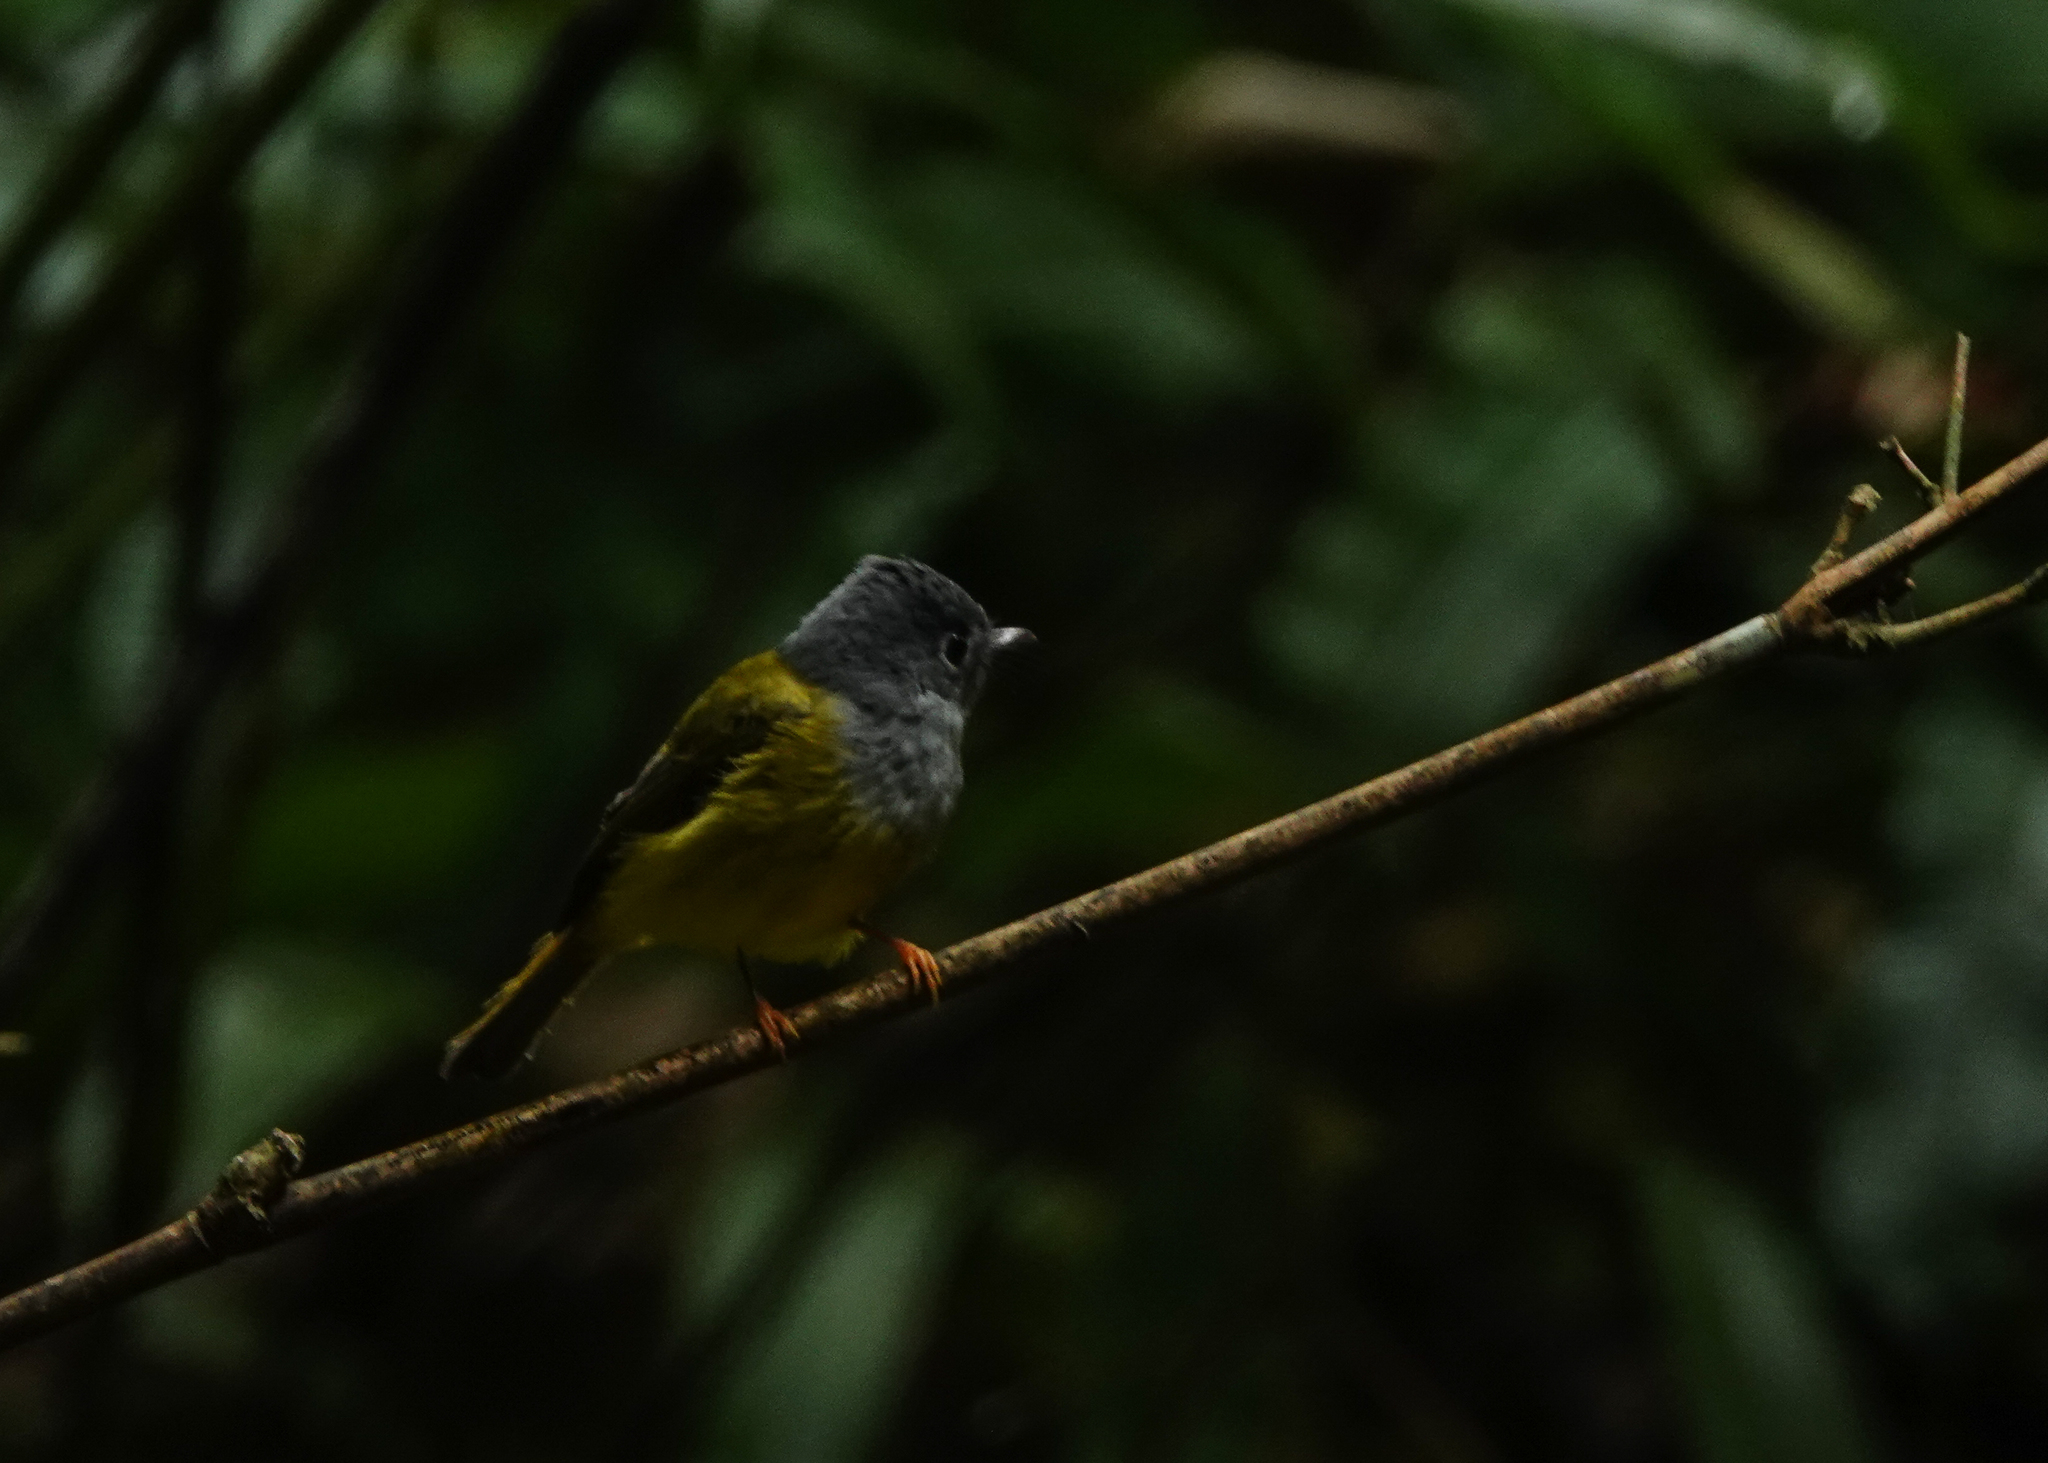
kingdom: Animalia
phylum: Chordata
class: Aves
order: Passeriformes
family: Stenostiridae
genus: Culicicapa
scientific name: Culicicapa ceylonensis
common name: Grey-headed canary-flycatcher
